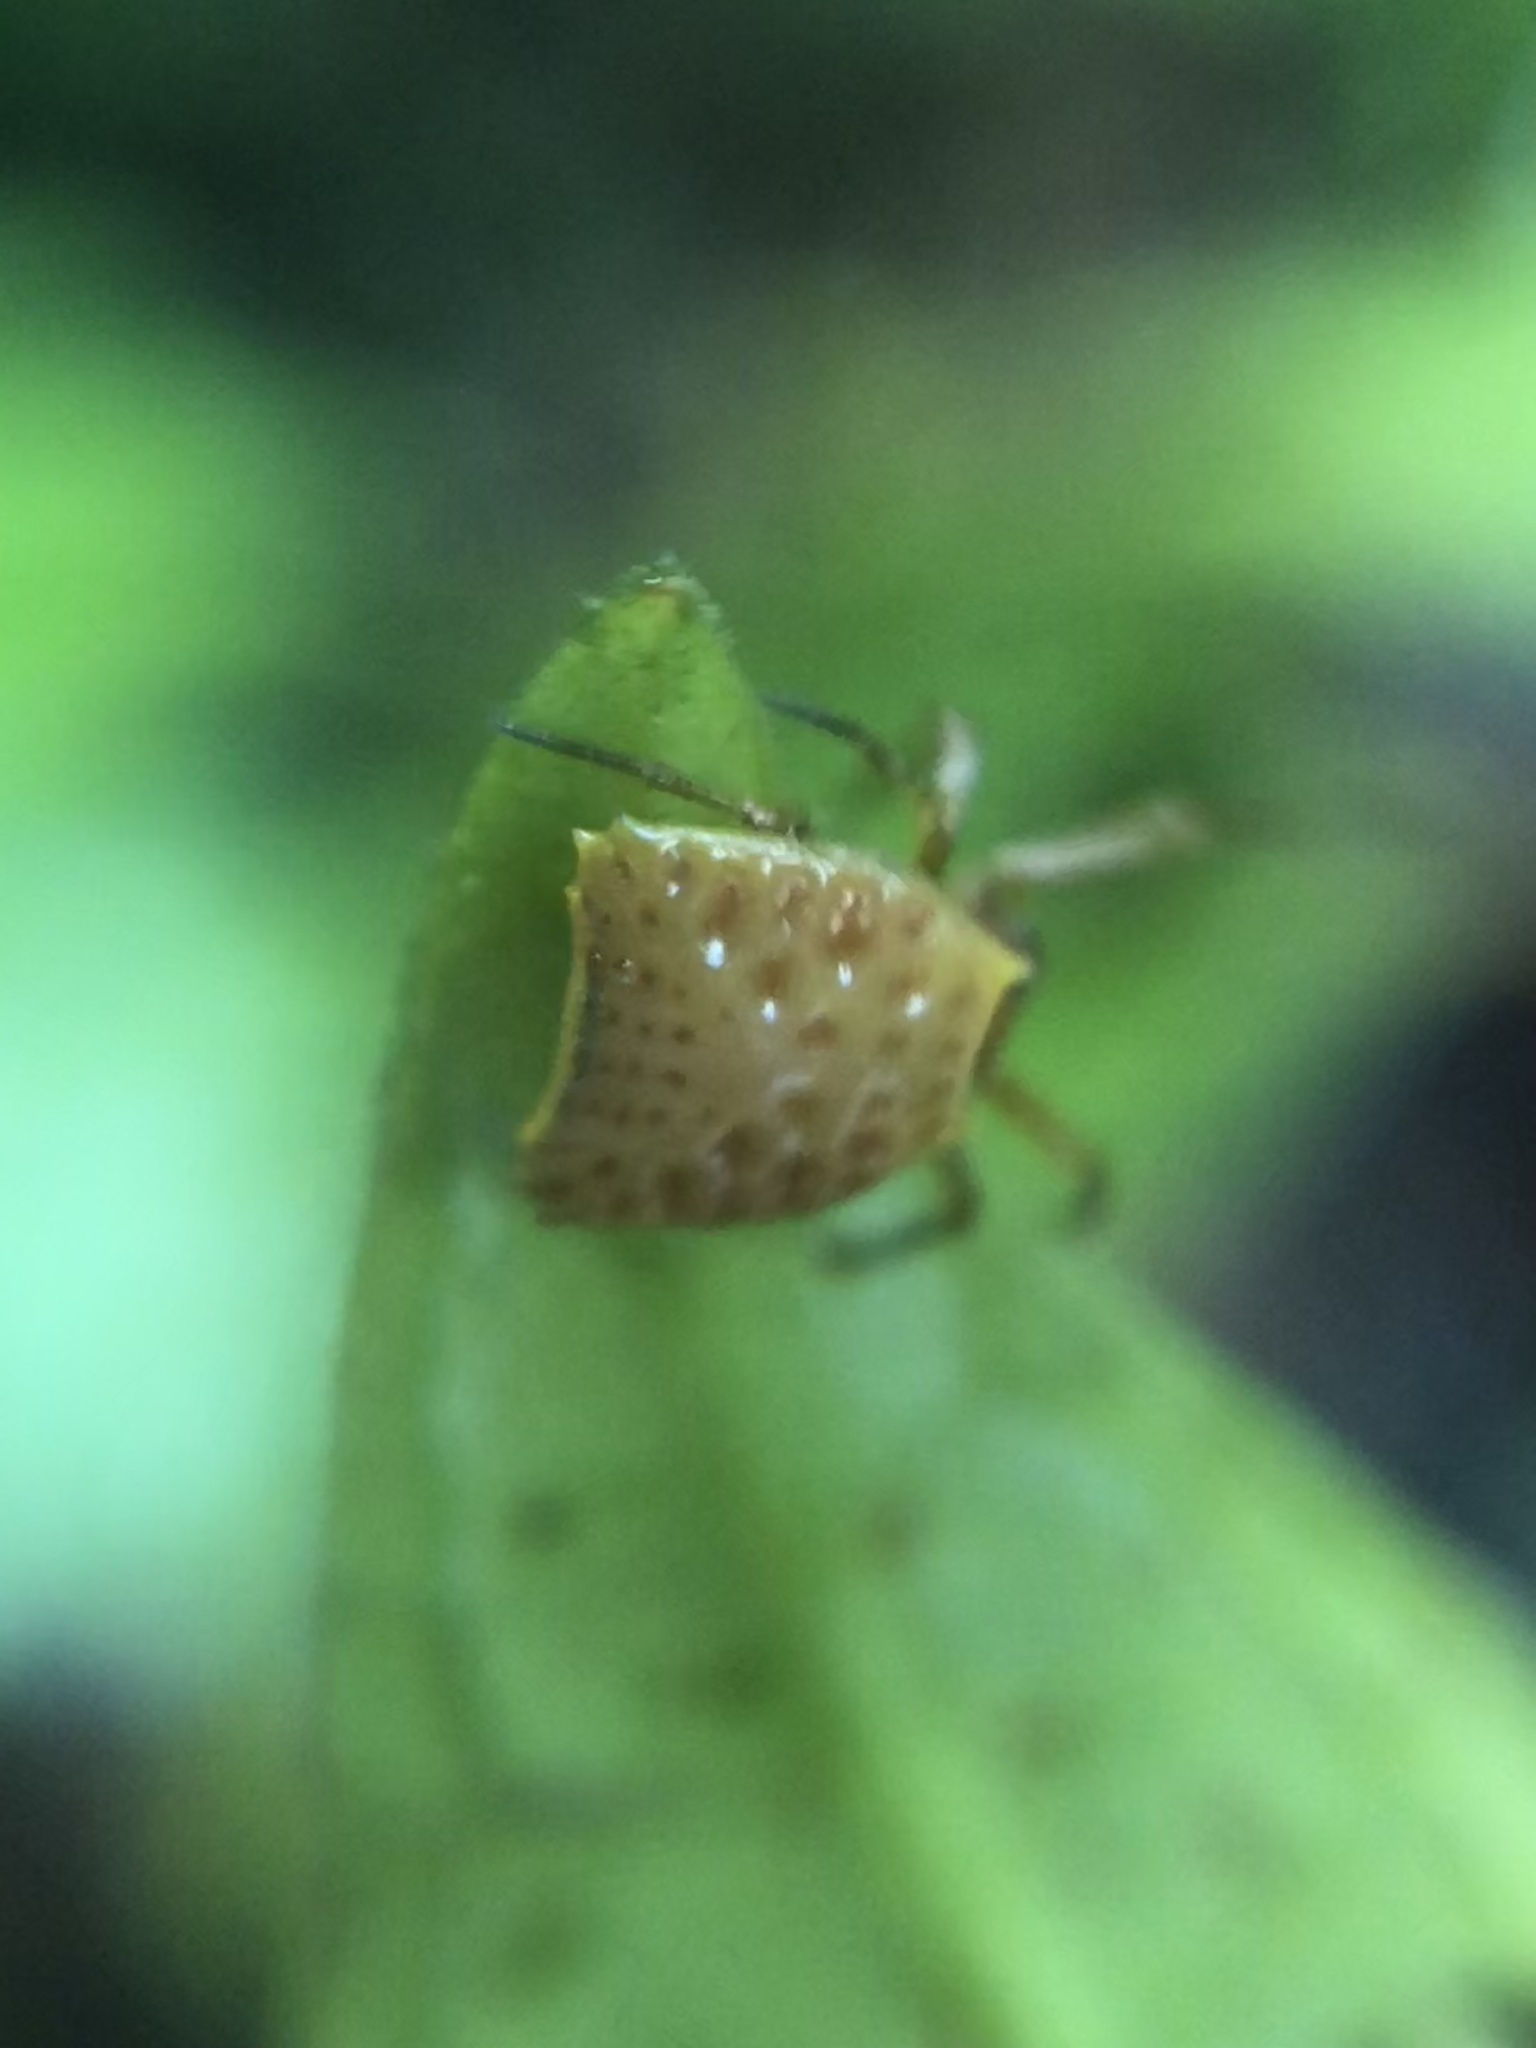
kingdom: Animalia
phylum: Arthropoda
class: Arachnida
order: Araneae
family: Araneidae
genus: Micrathena
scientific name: Micrathena clypeata
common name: Orb weavers
